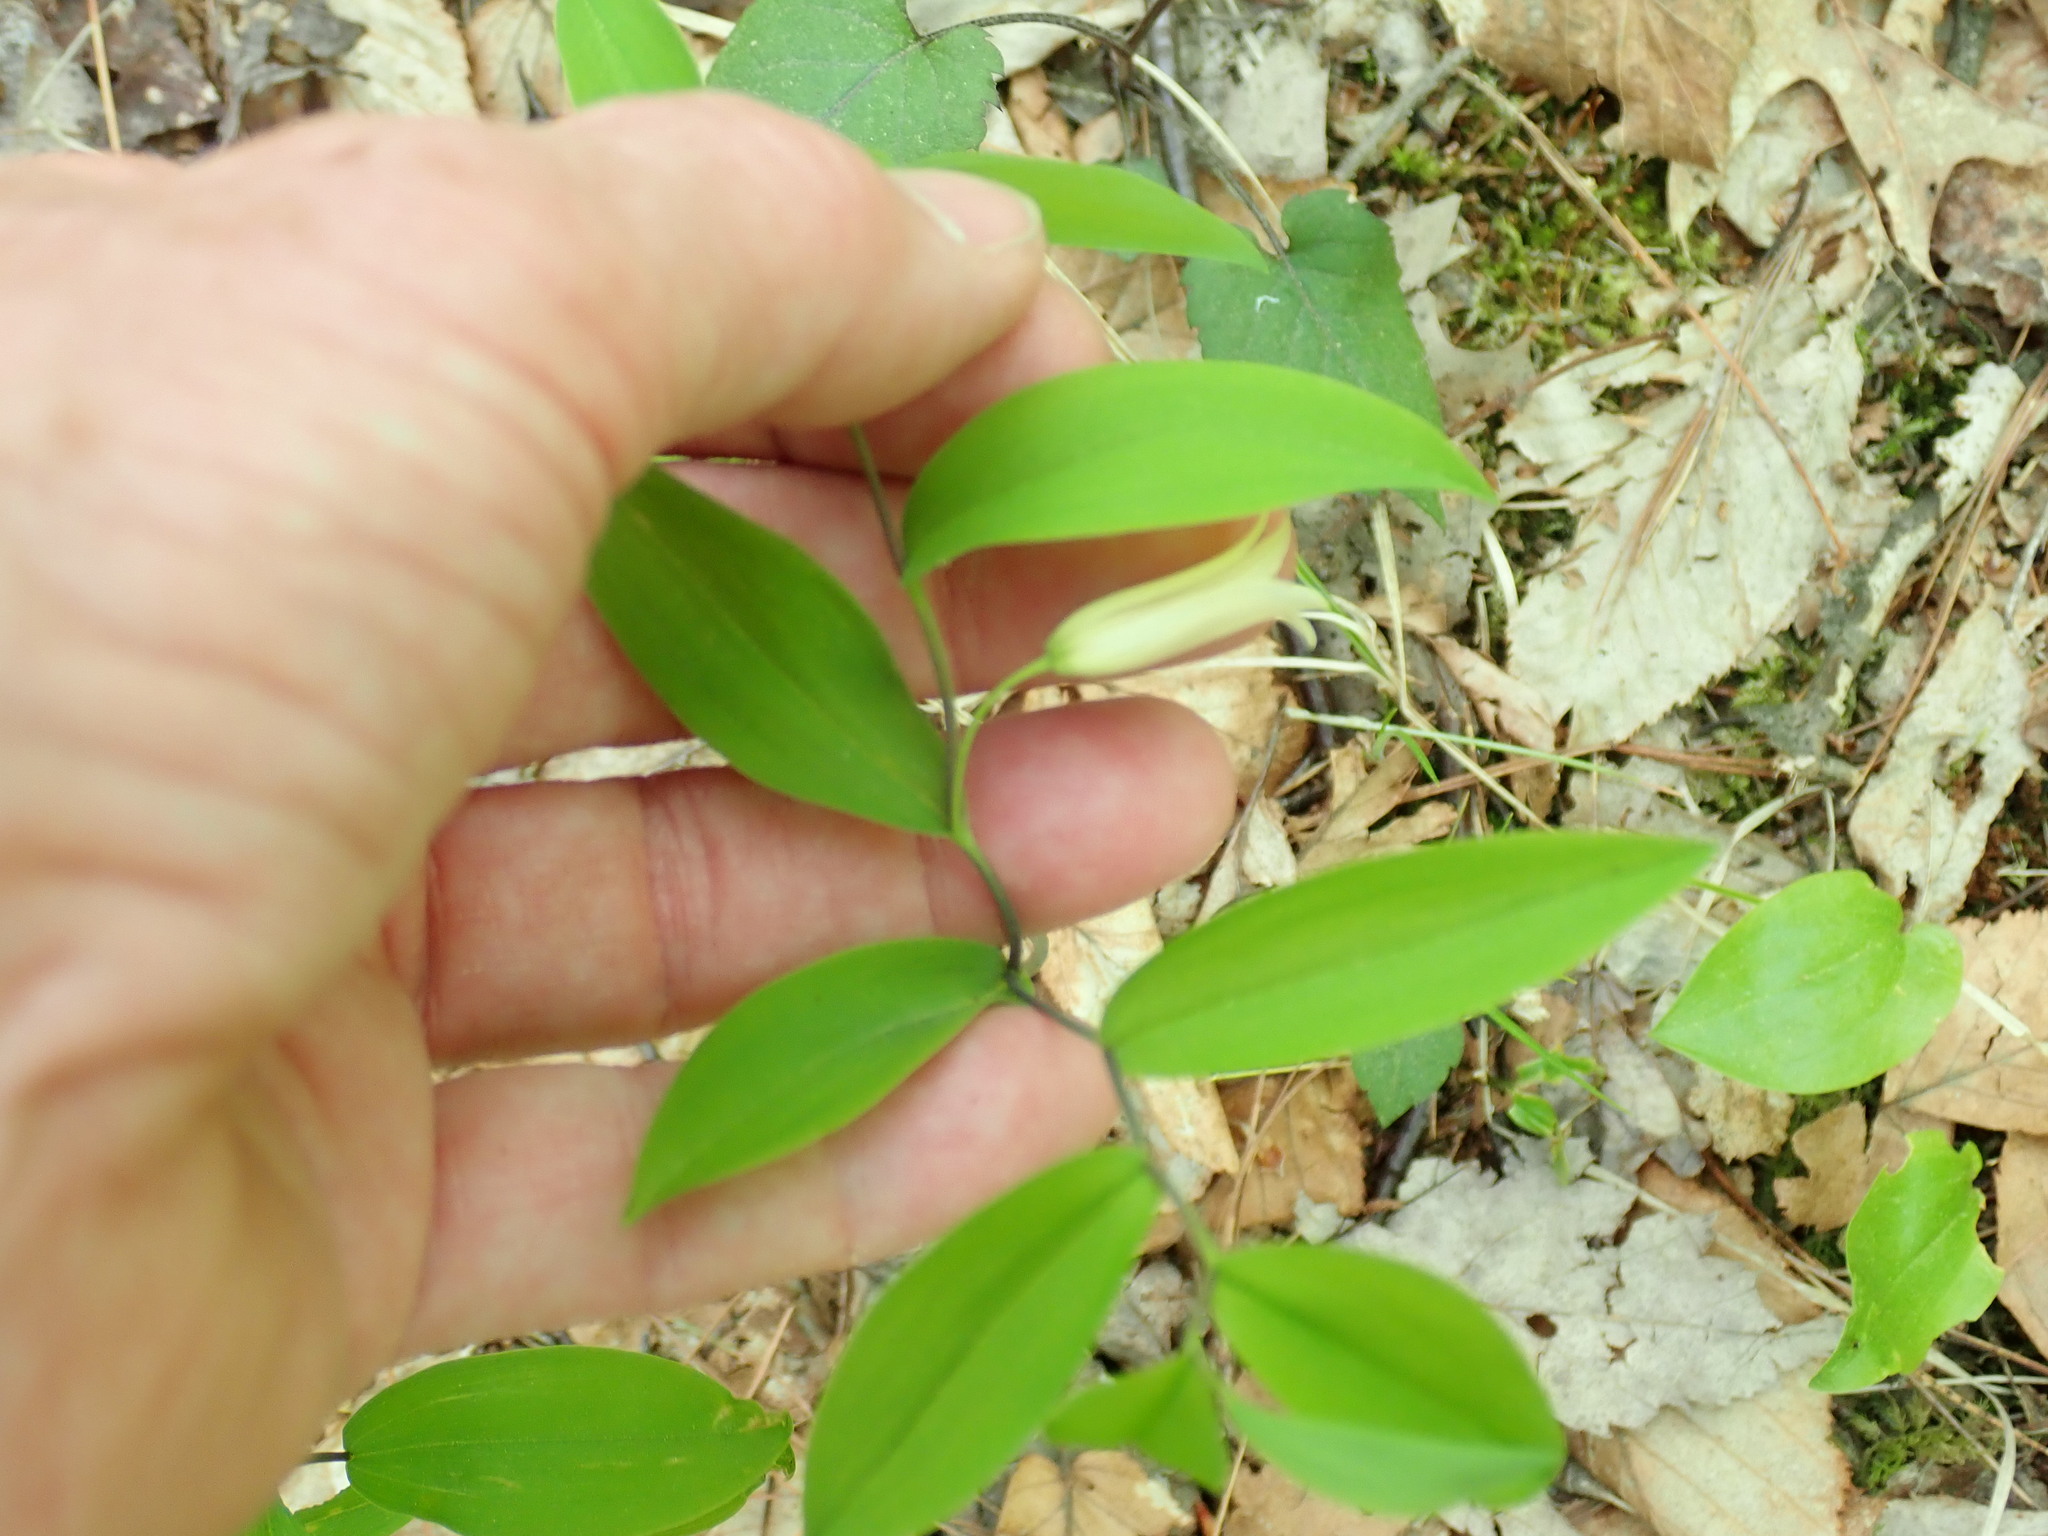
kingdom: Plantae
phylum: Tracheophyta
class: Liliopsida
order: Liliales
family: Colchicaceae
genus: Uvularia
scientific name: Uvularia sessilifolia
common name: Straw-lily
